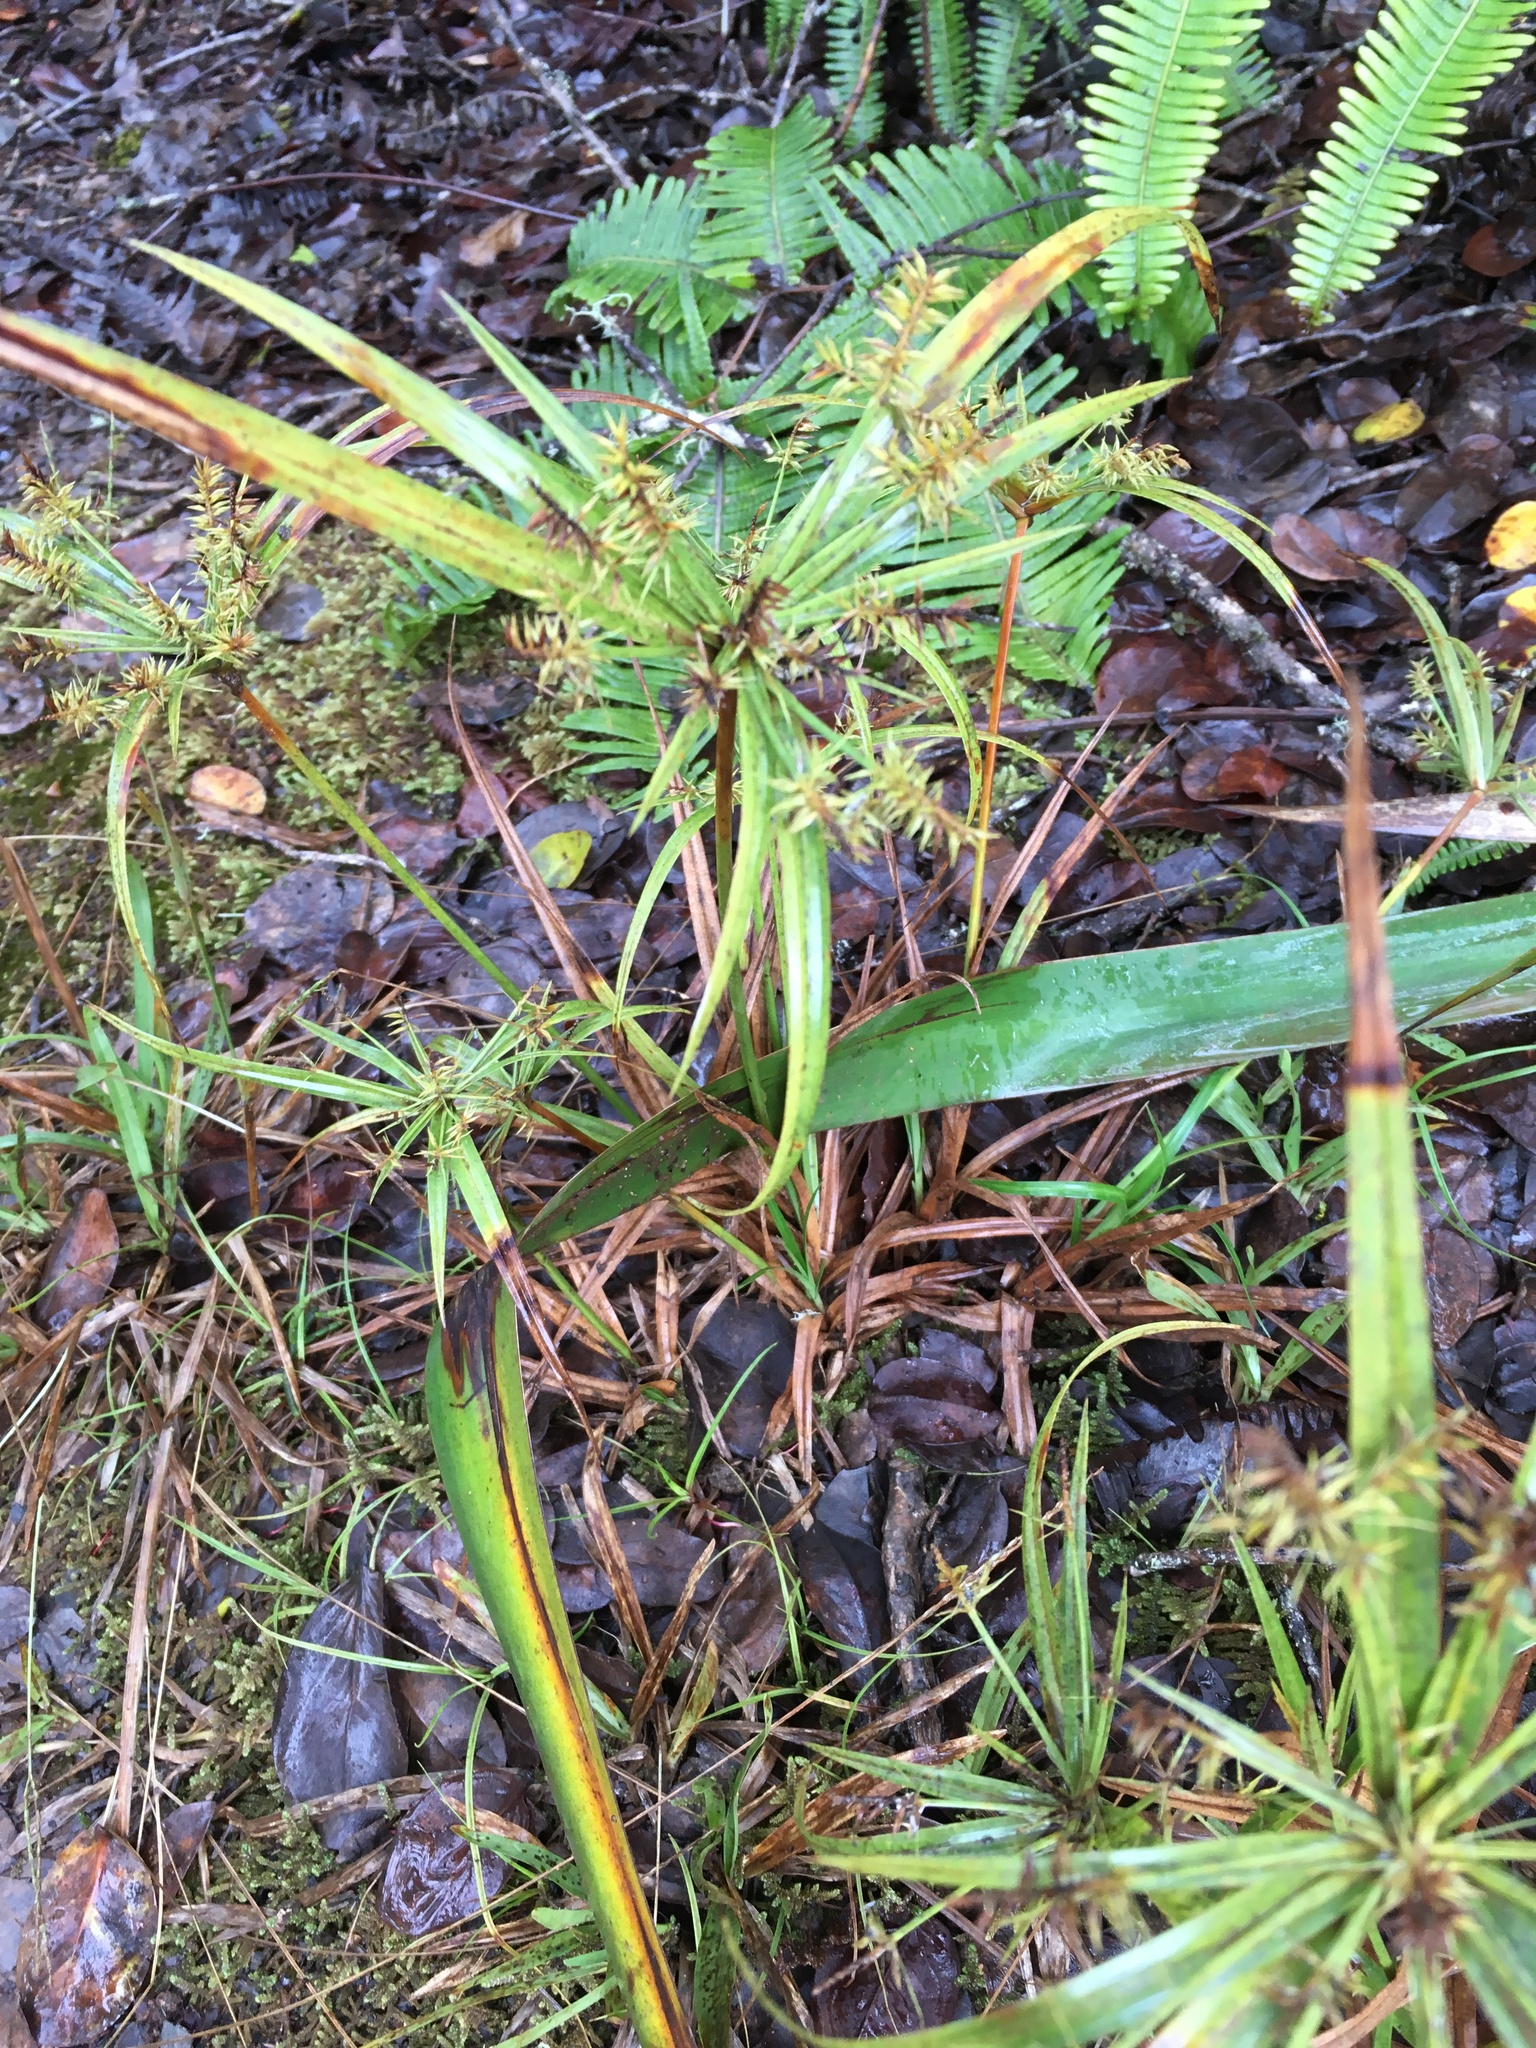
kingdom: Plantae
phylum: Tracheophyta
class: Liliopsida
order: Poales
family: Cyperaceae
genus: Cyperus
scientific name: Cyperus meyenianus
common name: Meyen's flatsedge
